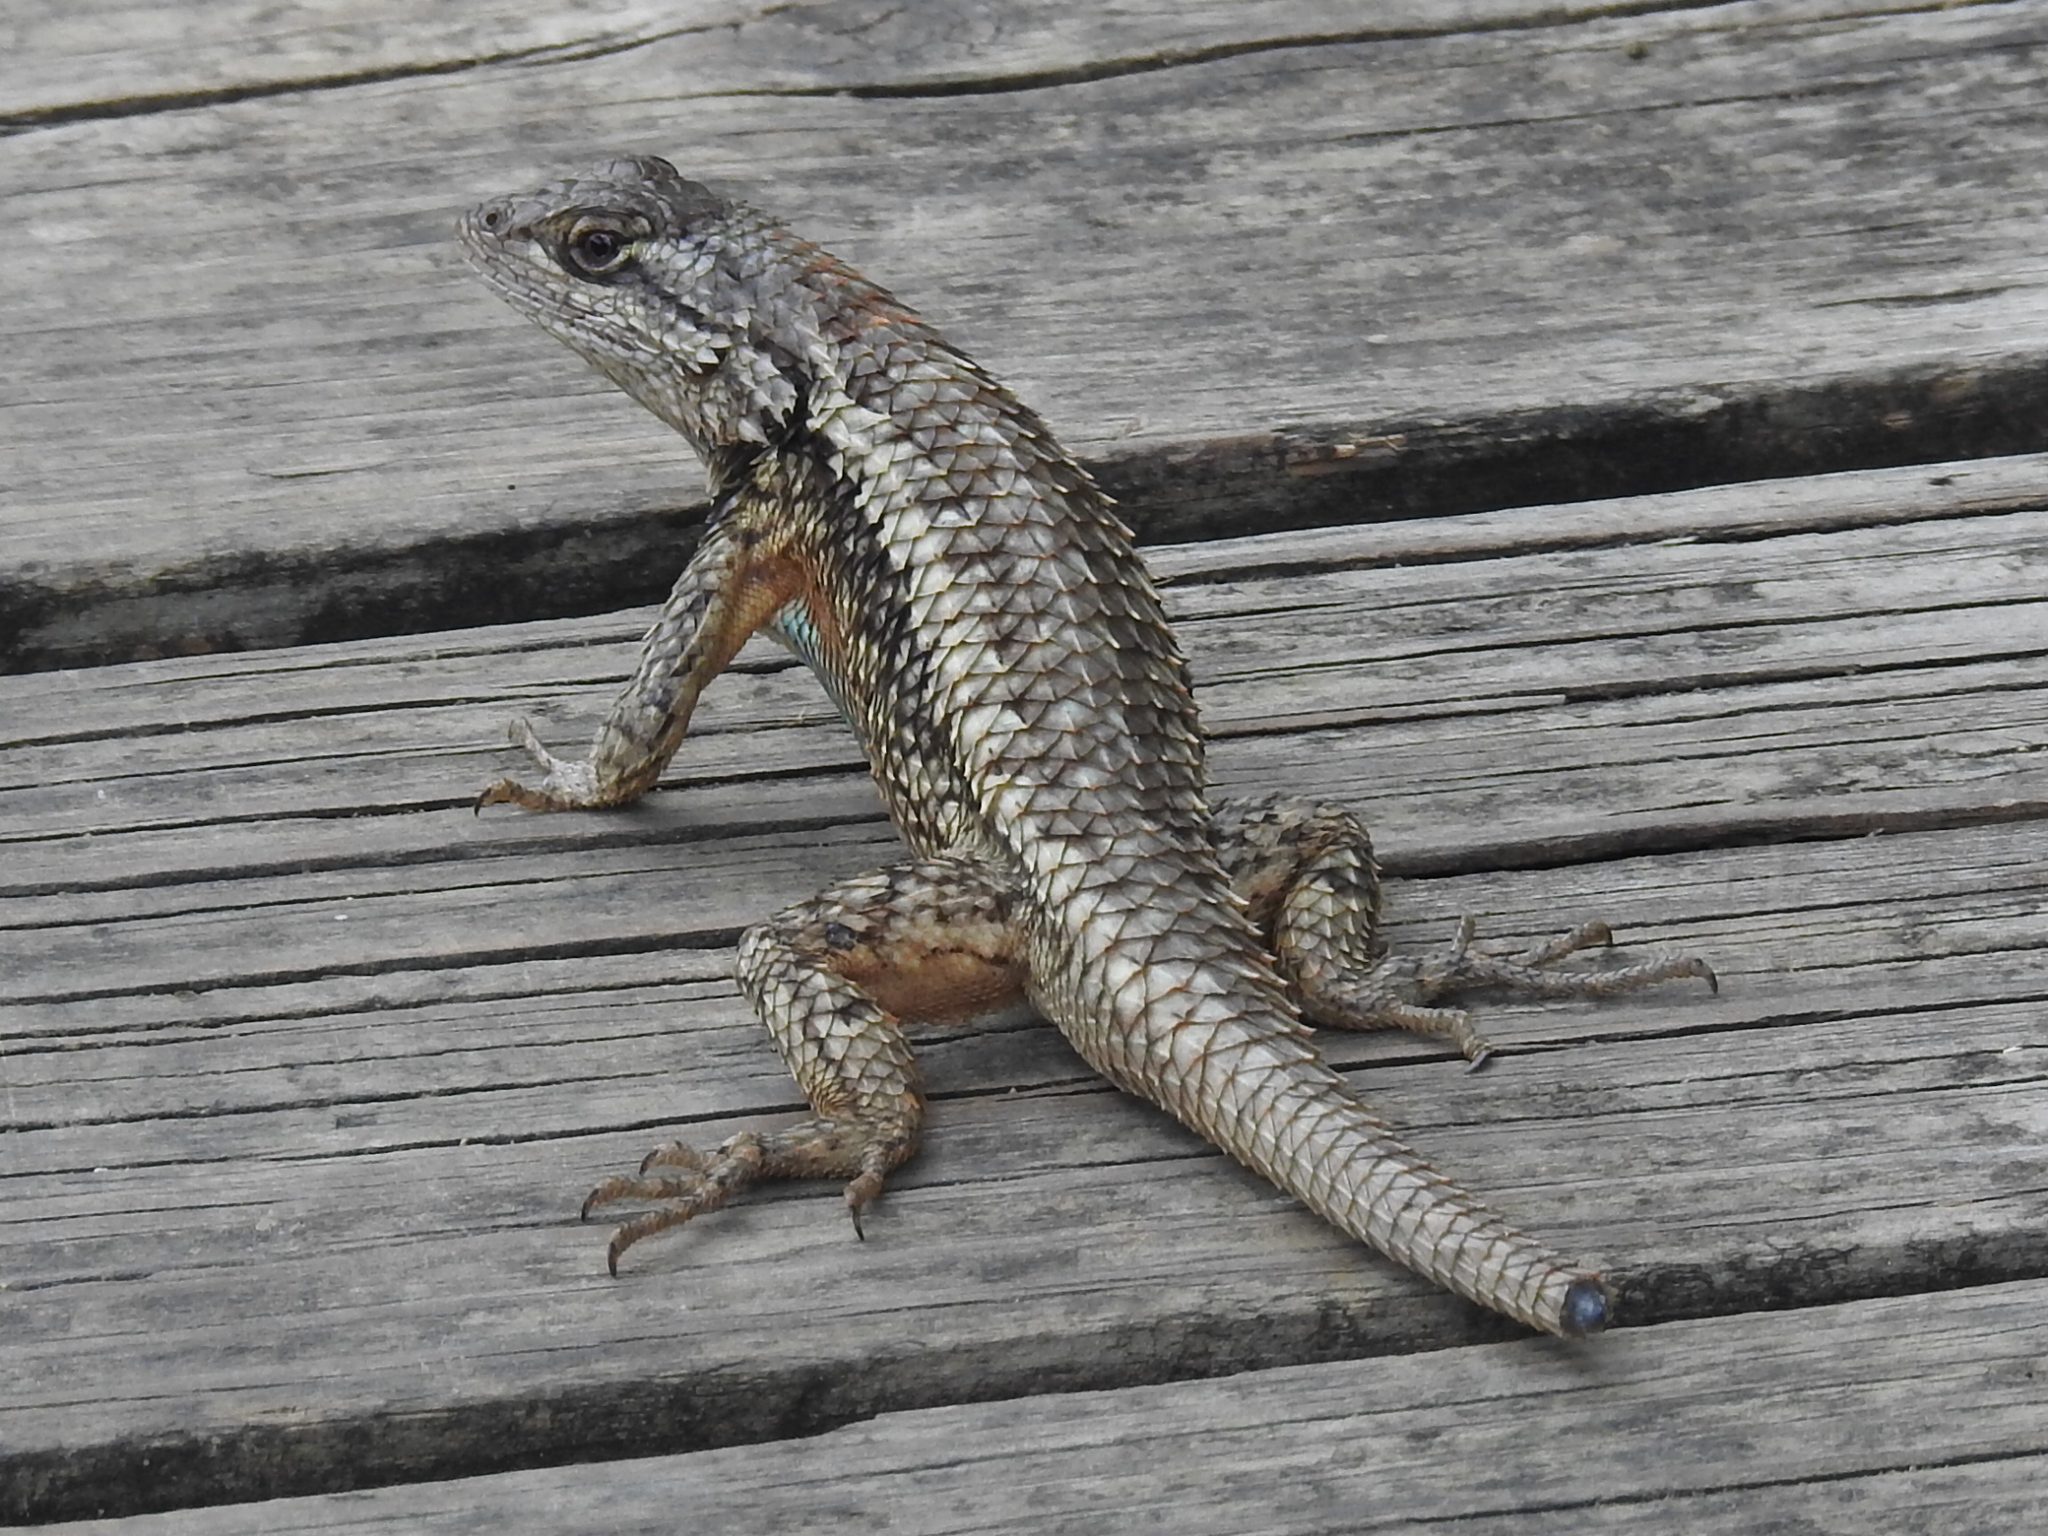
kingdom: Animalia
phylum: Chordata
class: Squamata
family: Phrynosomatidae
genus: Sceloporus
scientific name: Sceloporus olivaceus
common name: Texas spiny lizard
